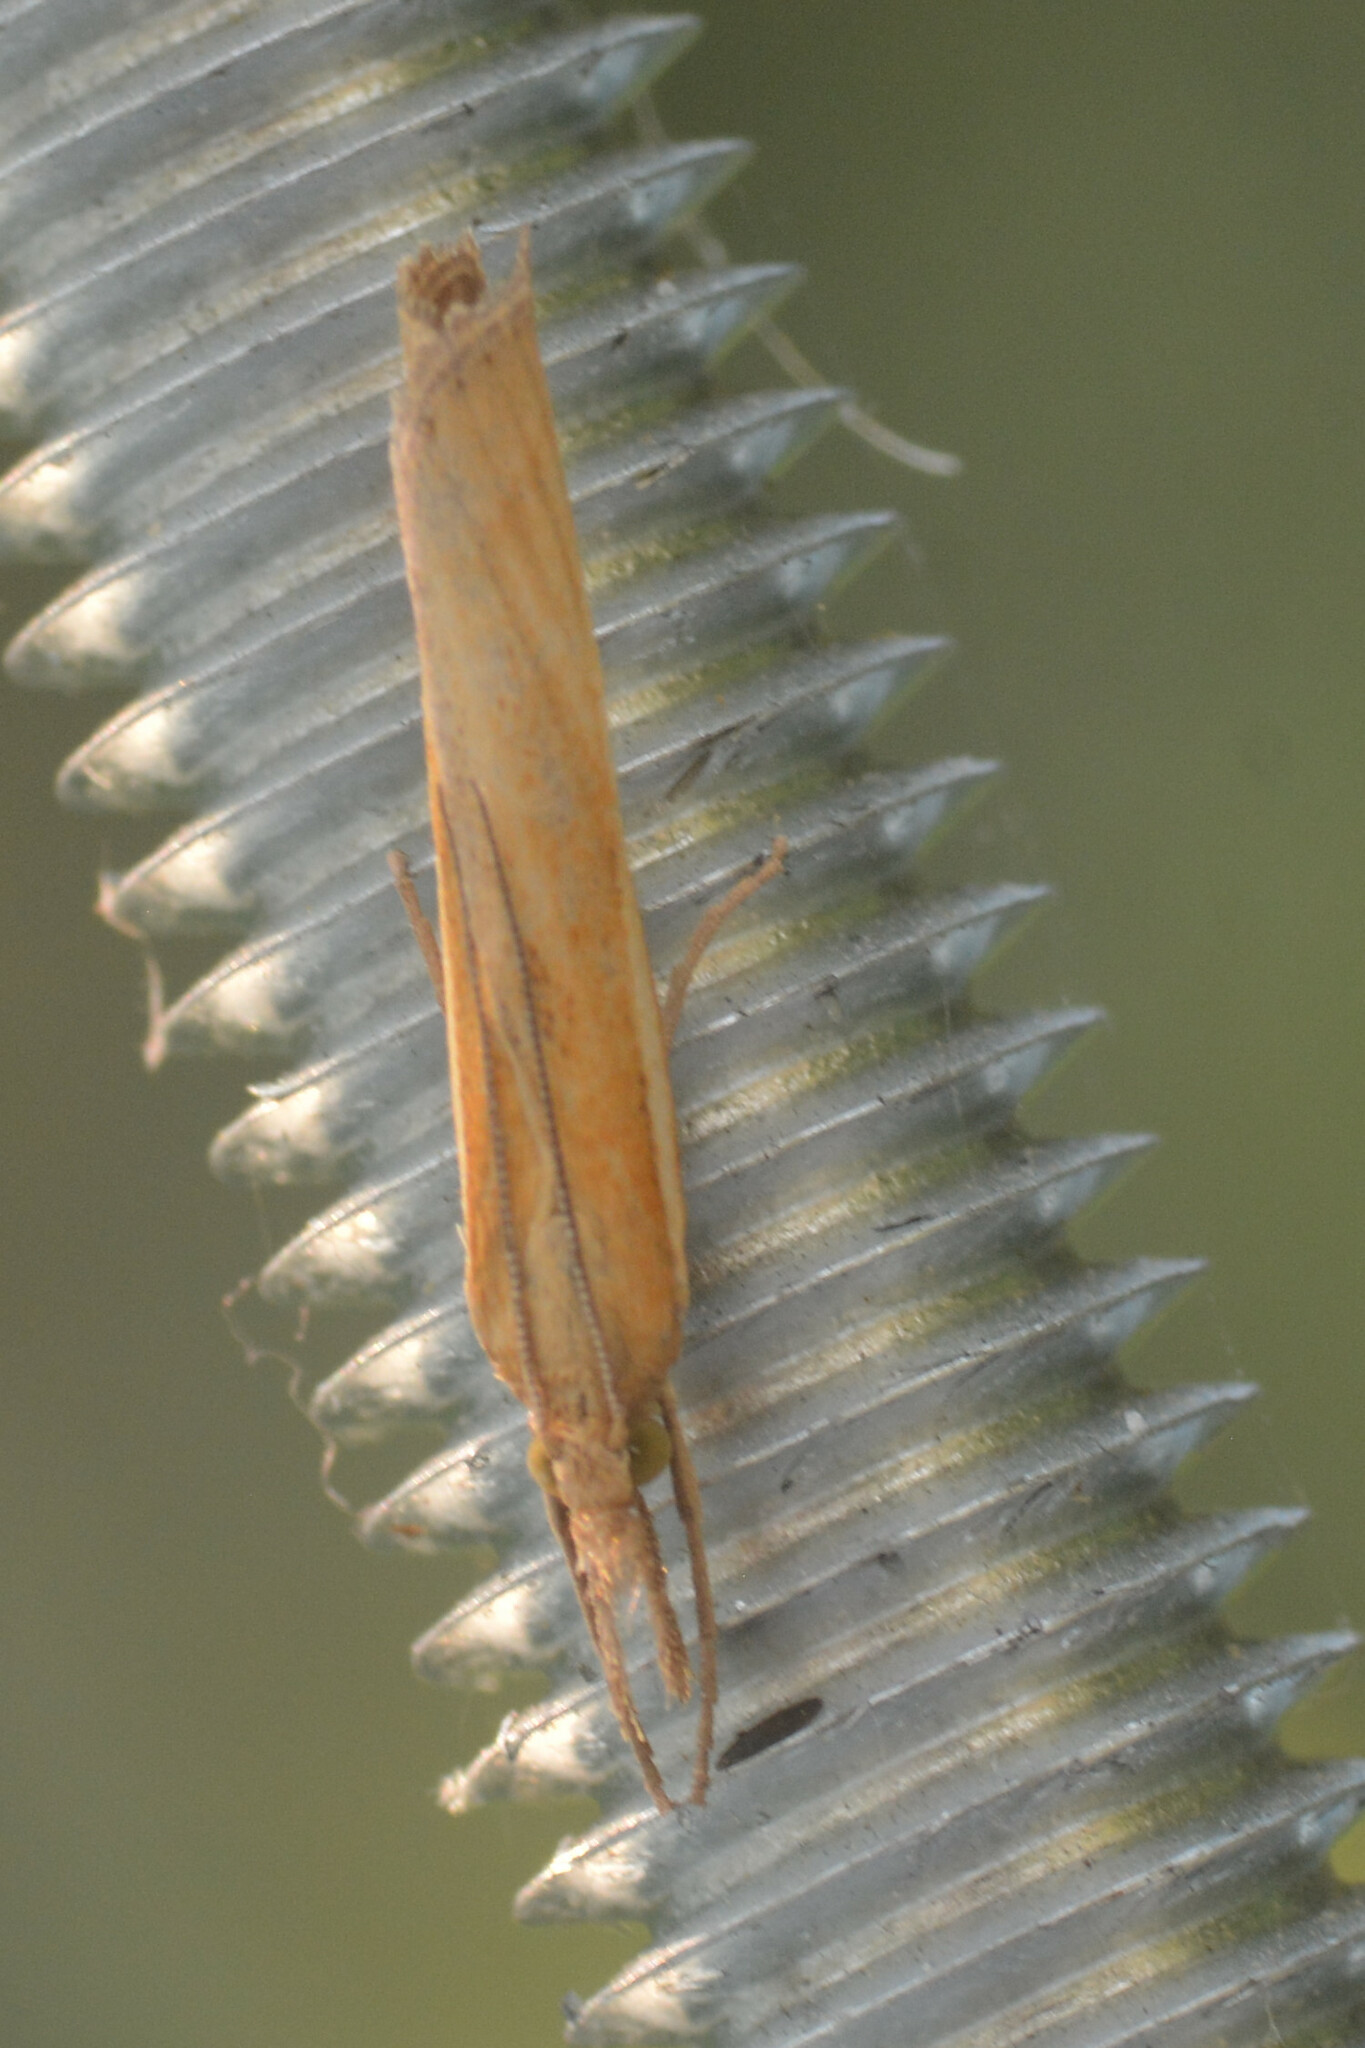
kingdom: Animalia
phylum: Arthropoda
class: Insecta
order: Lepidoptera
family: Crambidae
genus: Agriphila
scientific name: Agriphila tristellus
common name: Common grass-veneer
